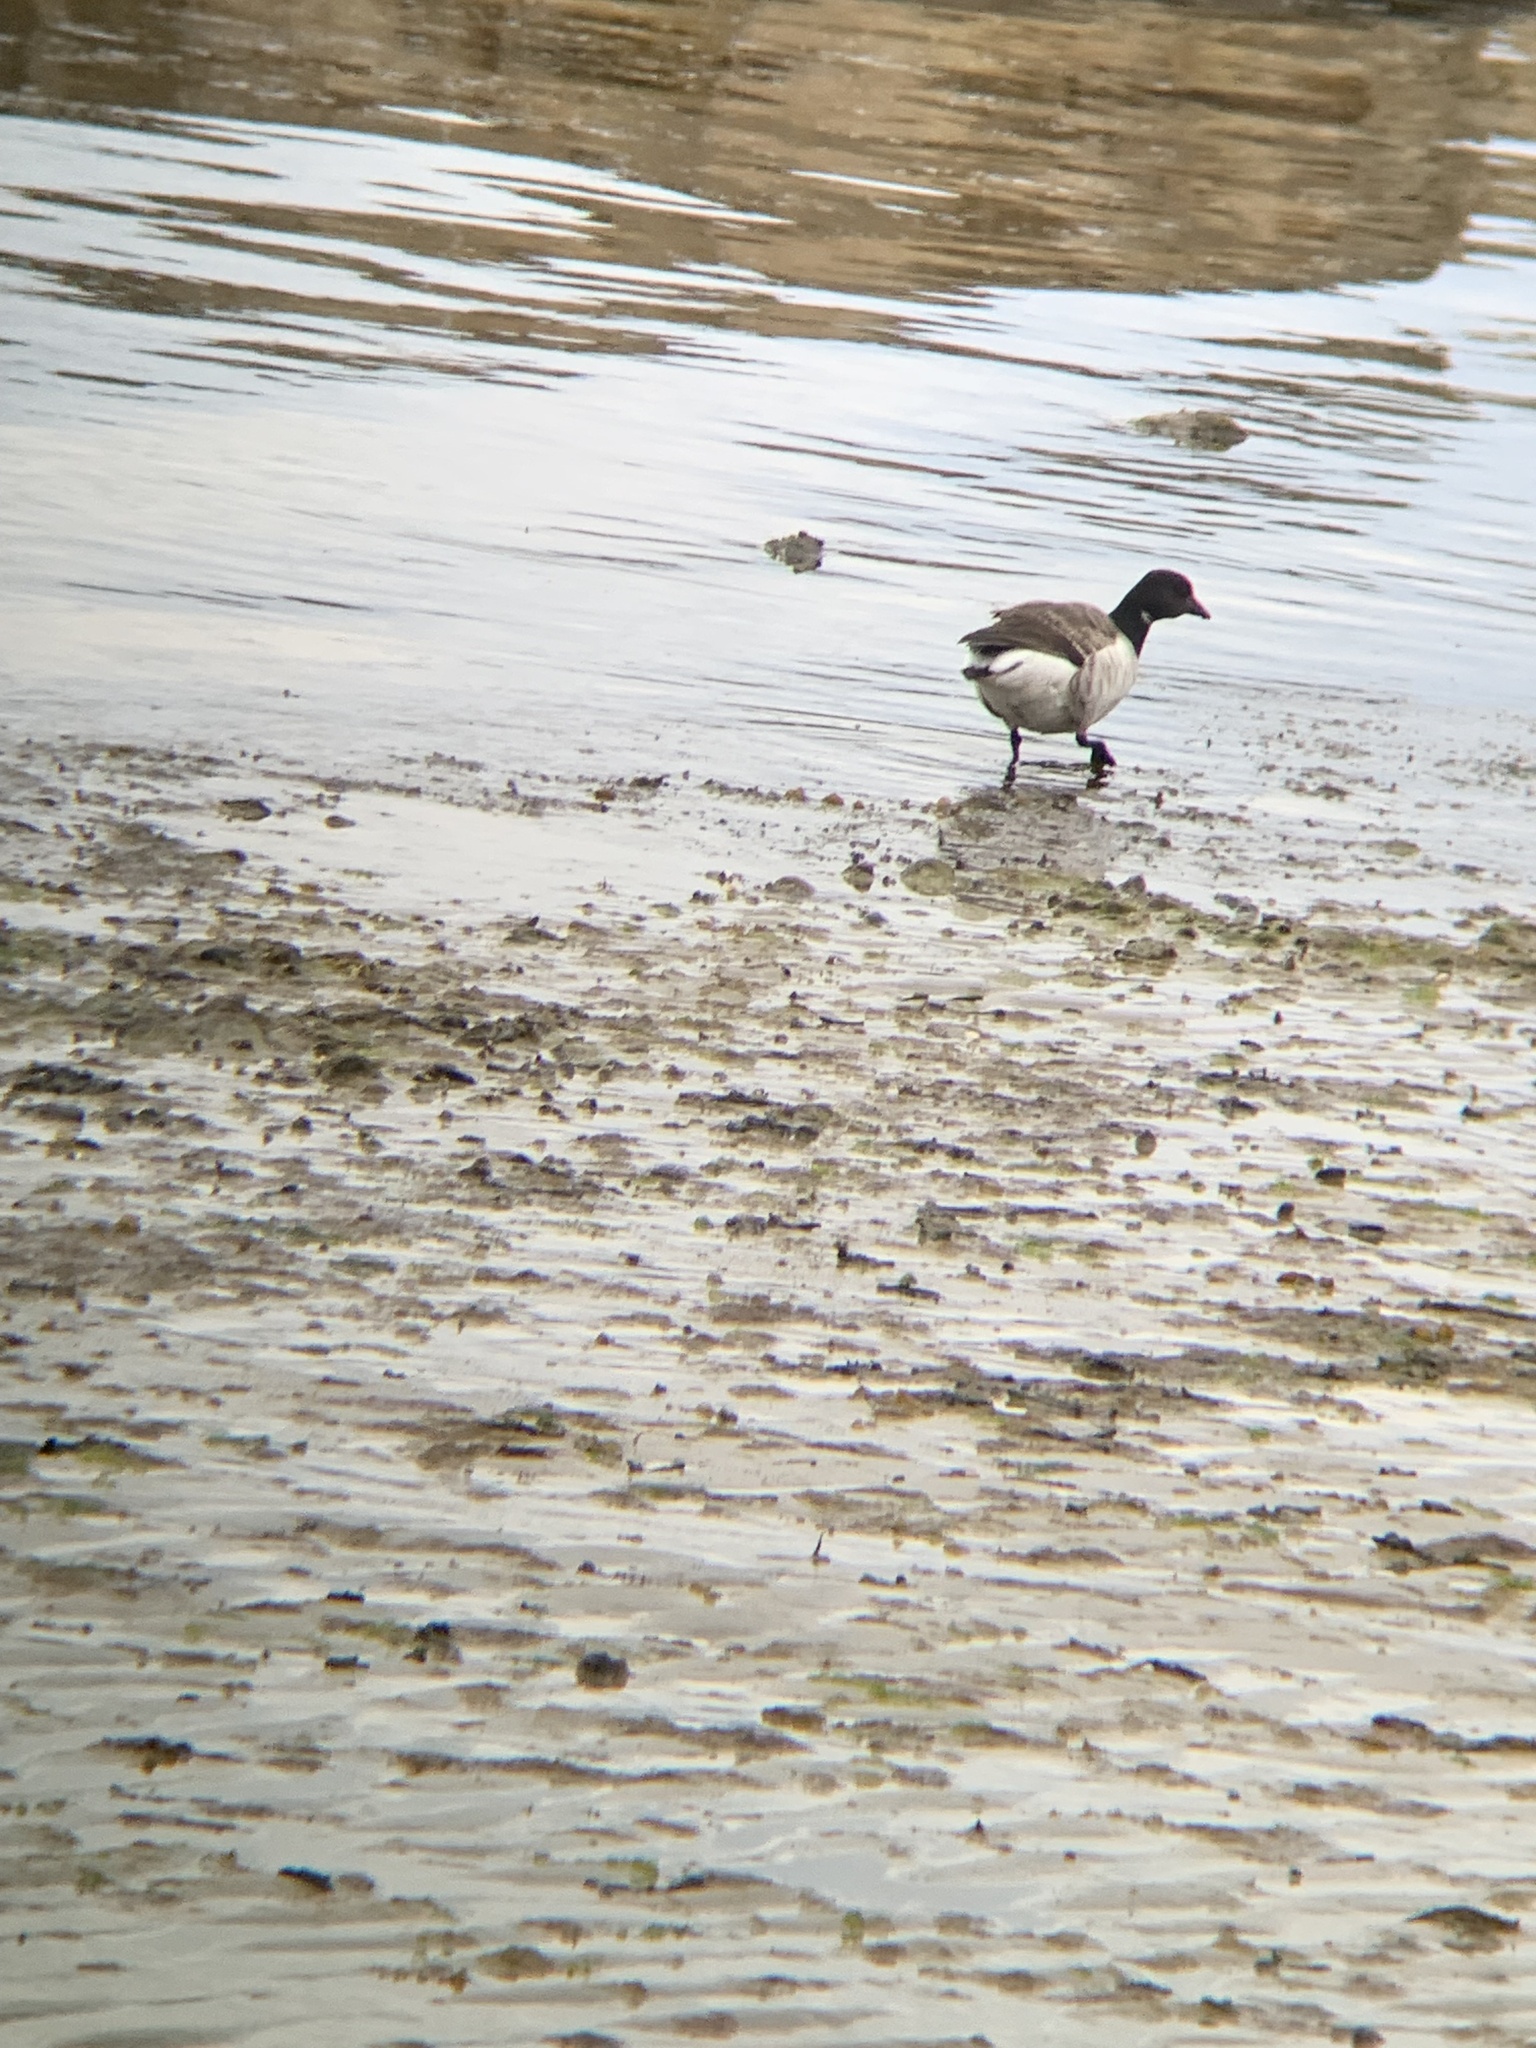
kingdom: Animalia
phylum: Chordata
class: Aves
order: Anseriformes
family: Anatidae
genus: Branta
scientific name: Branta bernicla
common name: Brant goose
